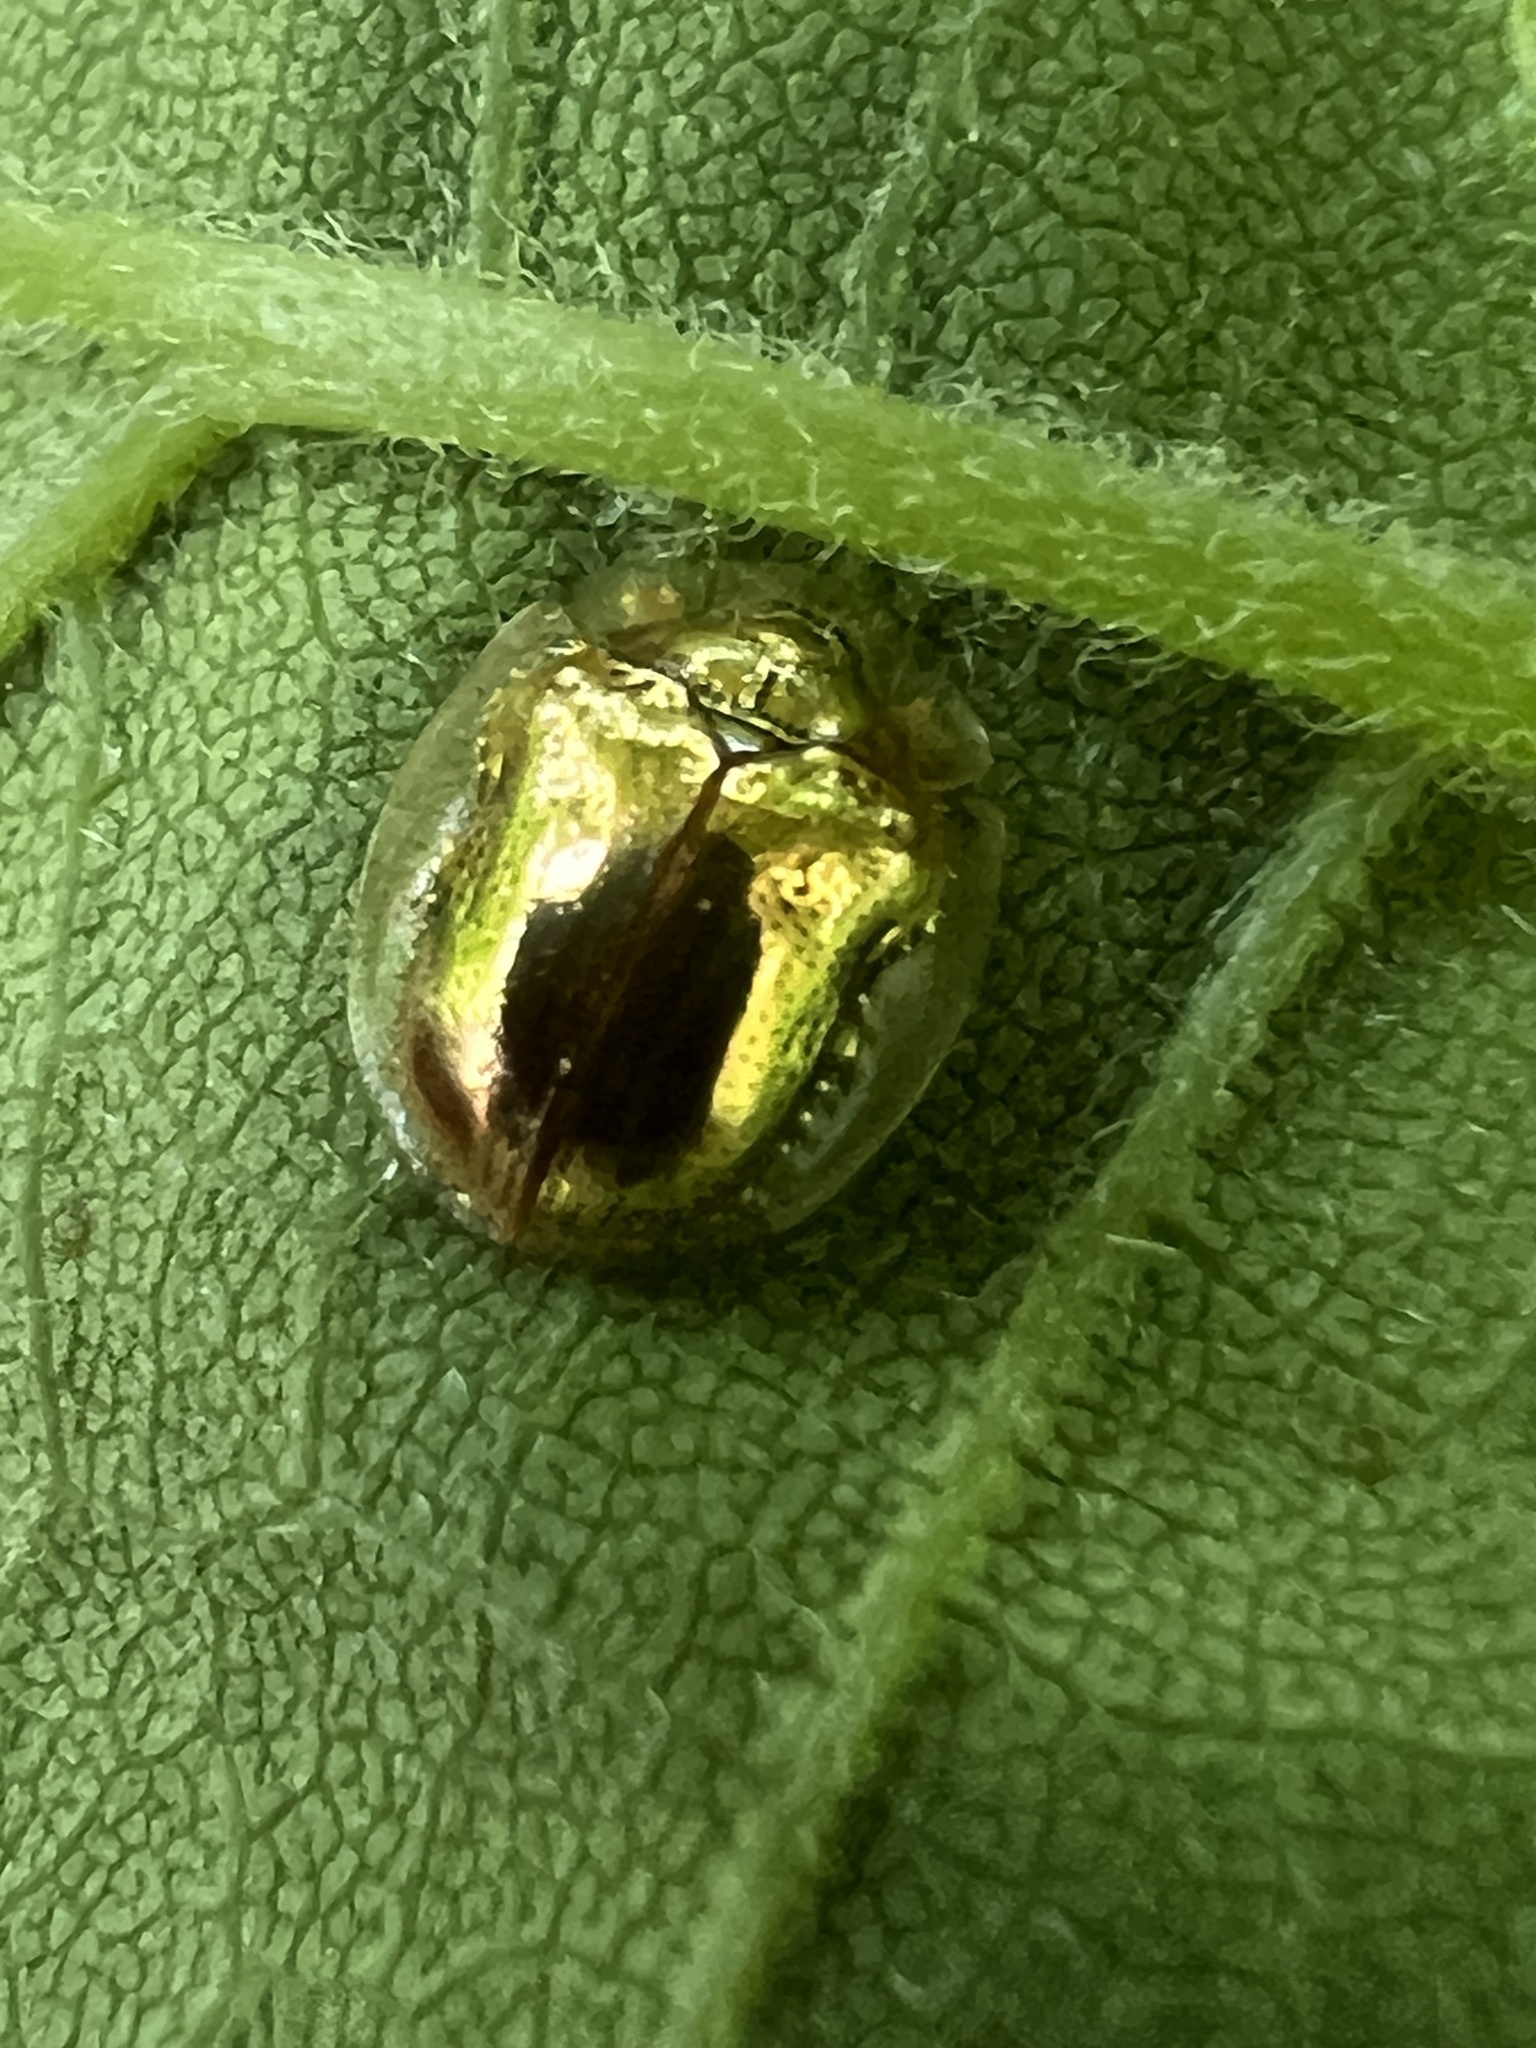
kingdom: Animalia
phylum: Arthropoda
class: Insecta
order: Coleoptera
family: Chrysomelidae
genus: Charidotella
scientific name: Charidotella sexpunctata
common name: Golden tortoise beetle
